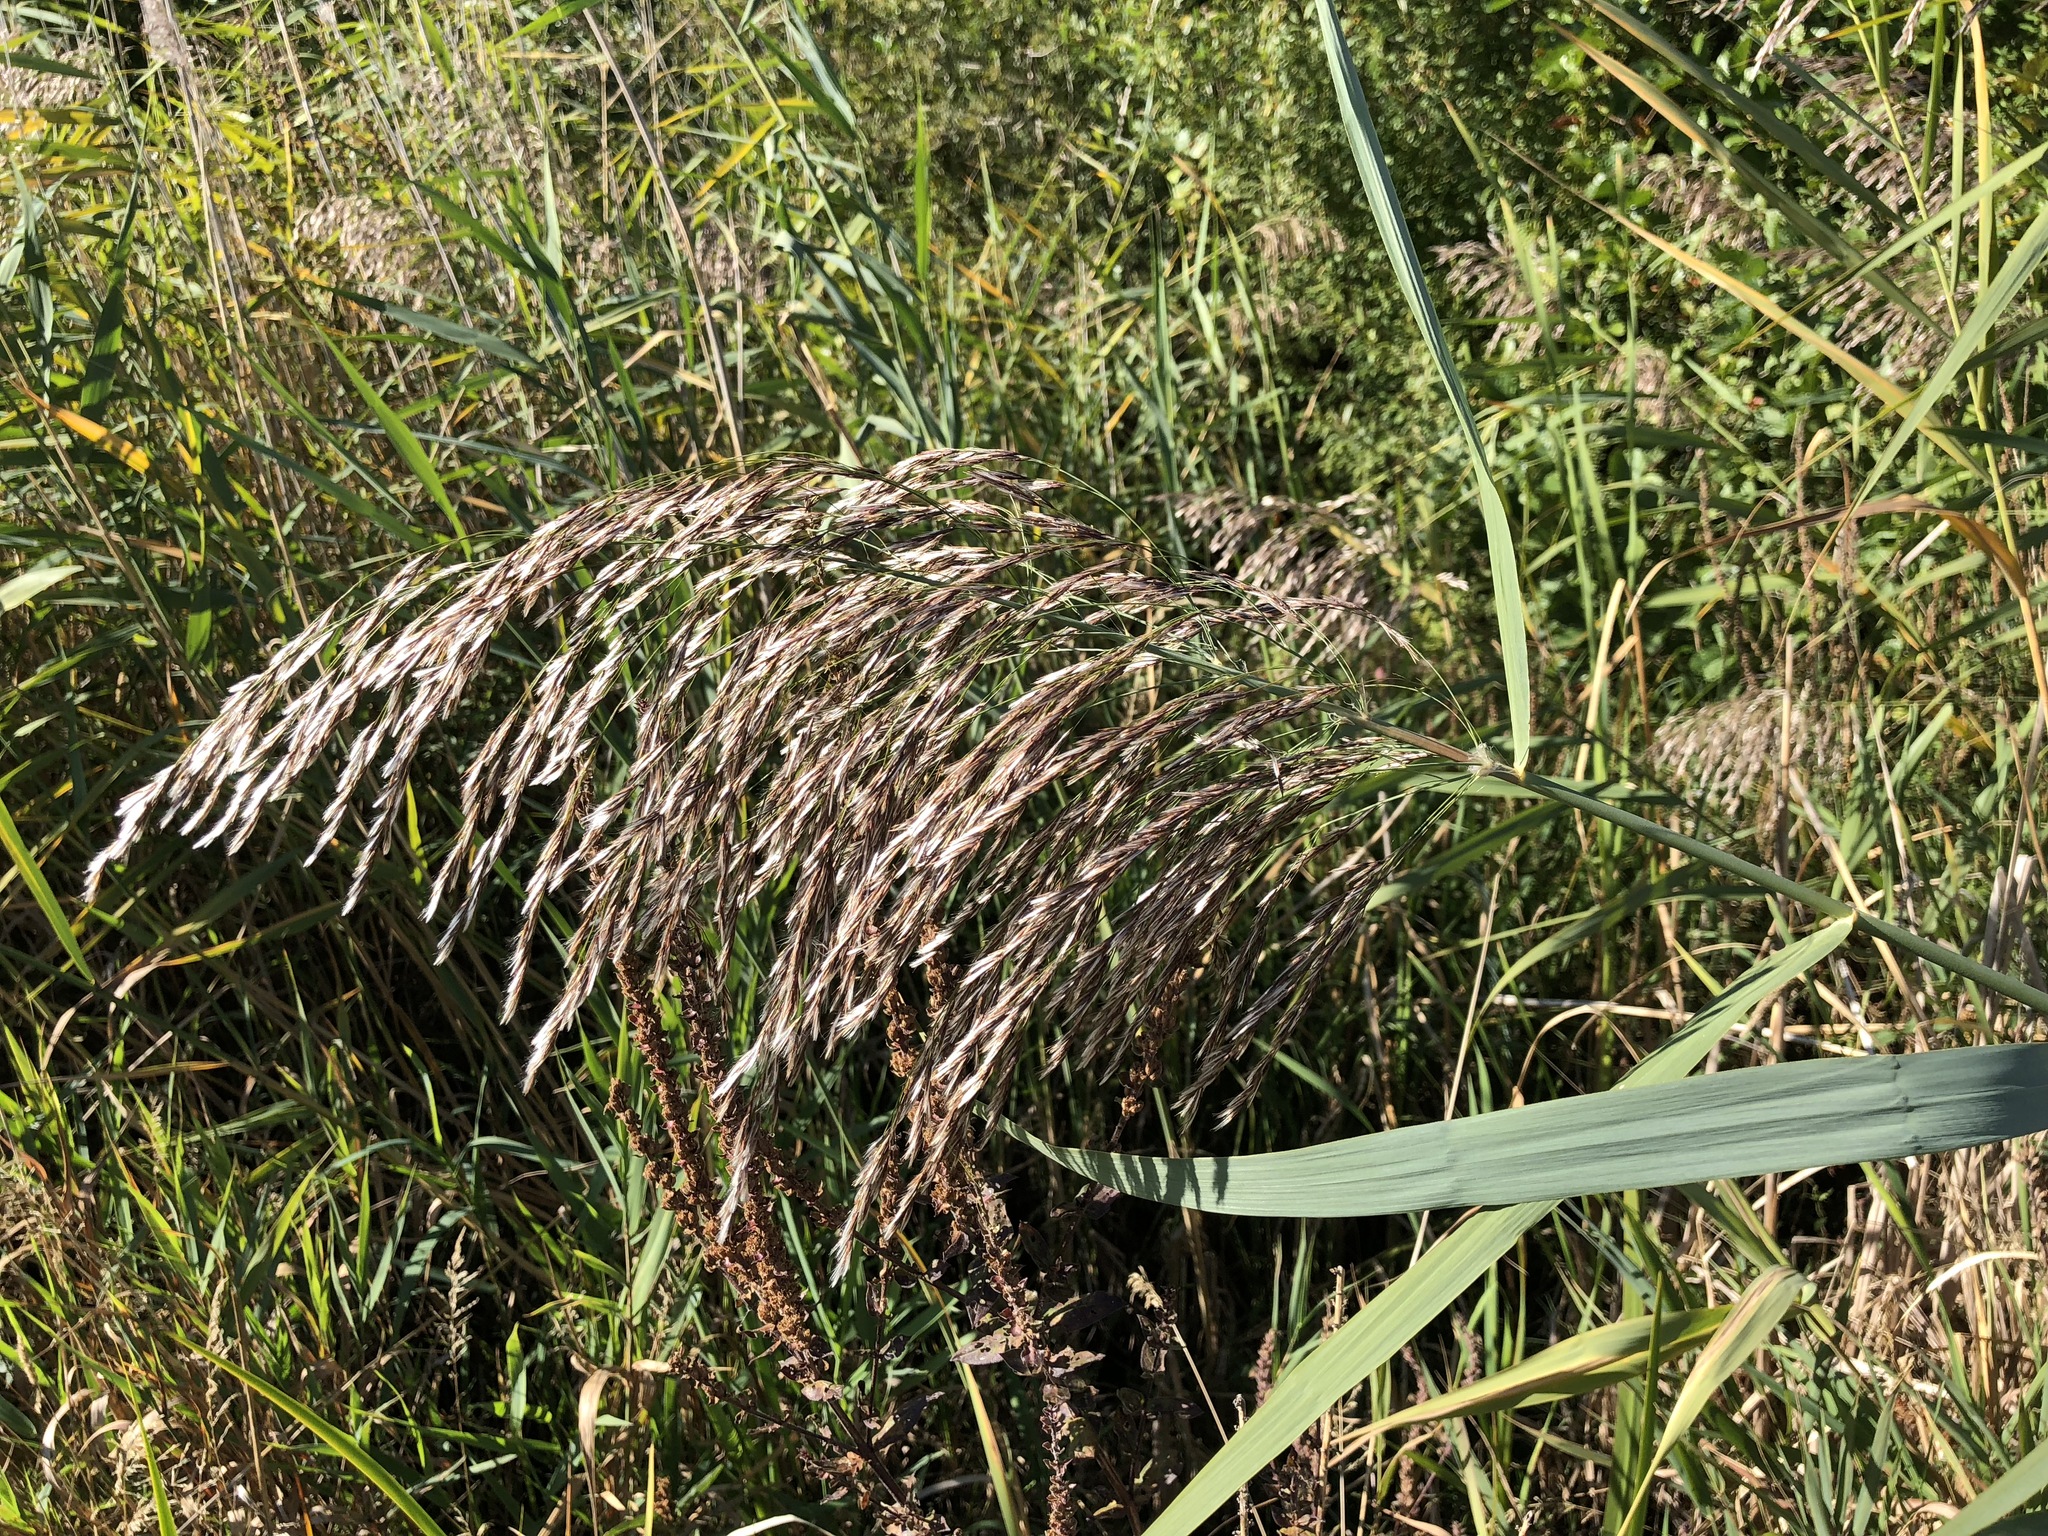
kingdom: Plantae
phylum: Tracheophyta
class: Liliopsida
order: Poales
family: Poaceae
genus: Phragmites
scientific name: Phragmites australis
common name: Common reed
